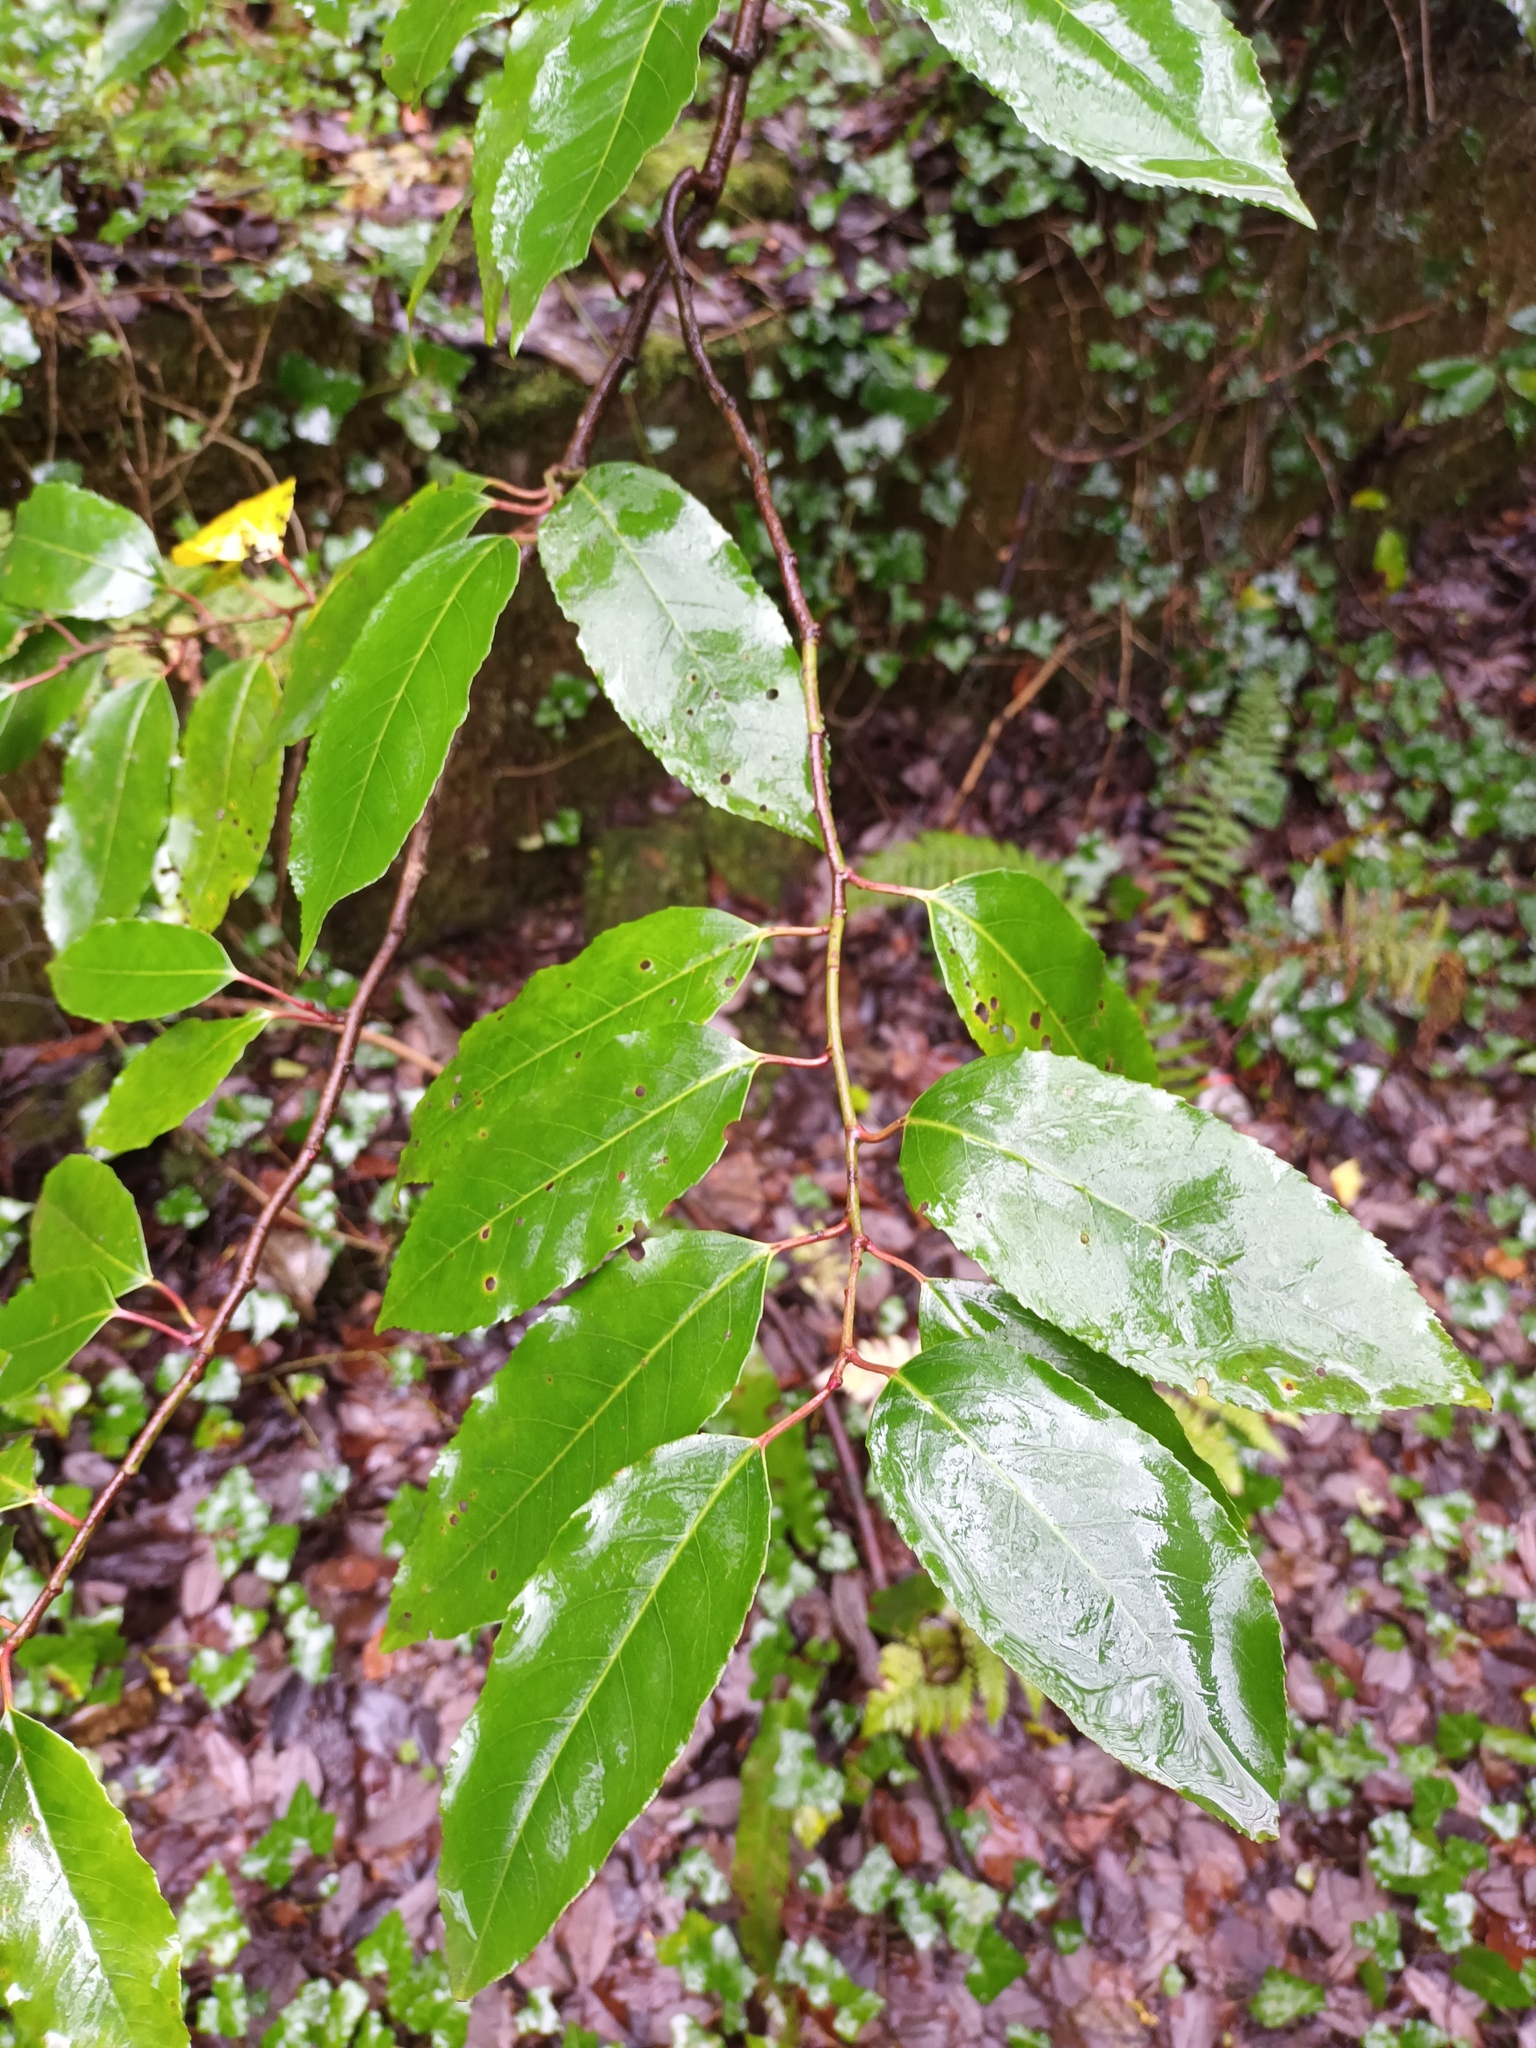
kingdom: Plantae
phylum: Tracheophyta
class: Magnoliopsida
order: Rosales
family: Rosaceae
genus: Prunus
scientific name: Prunus lusitanica
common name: Portugal laurel
